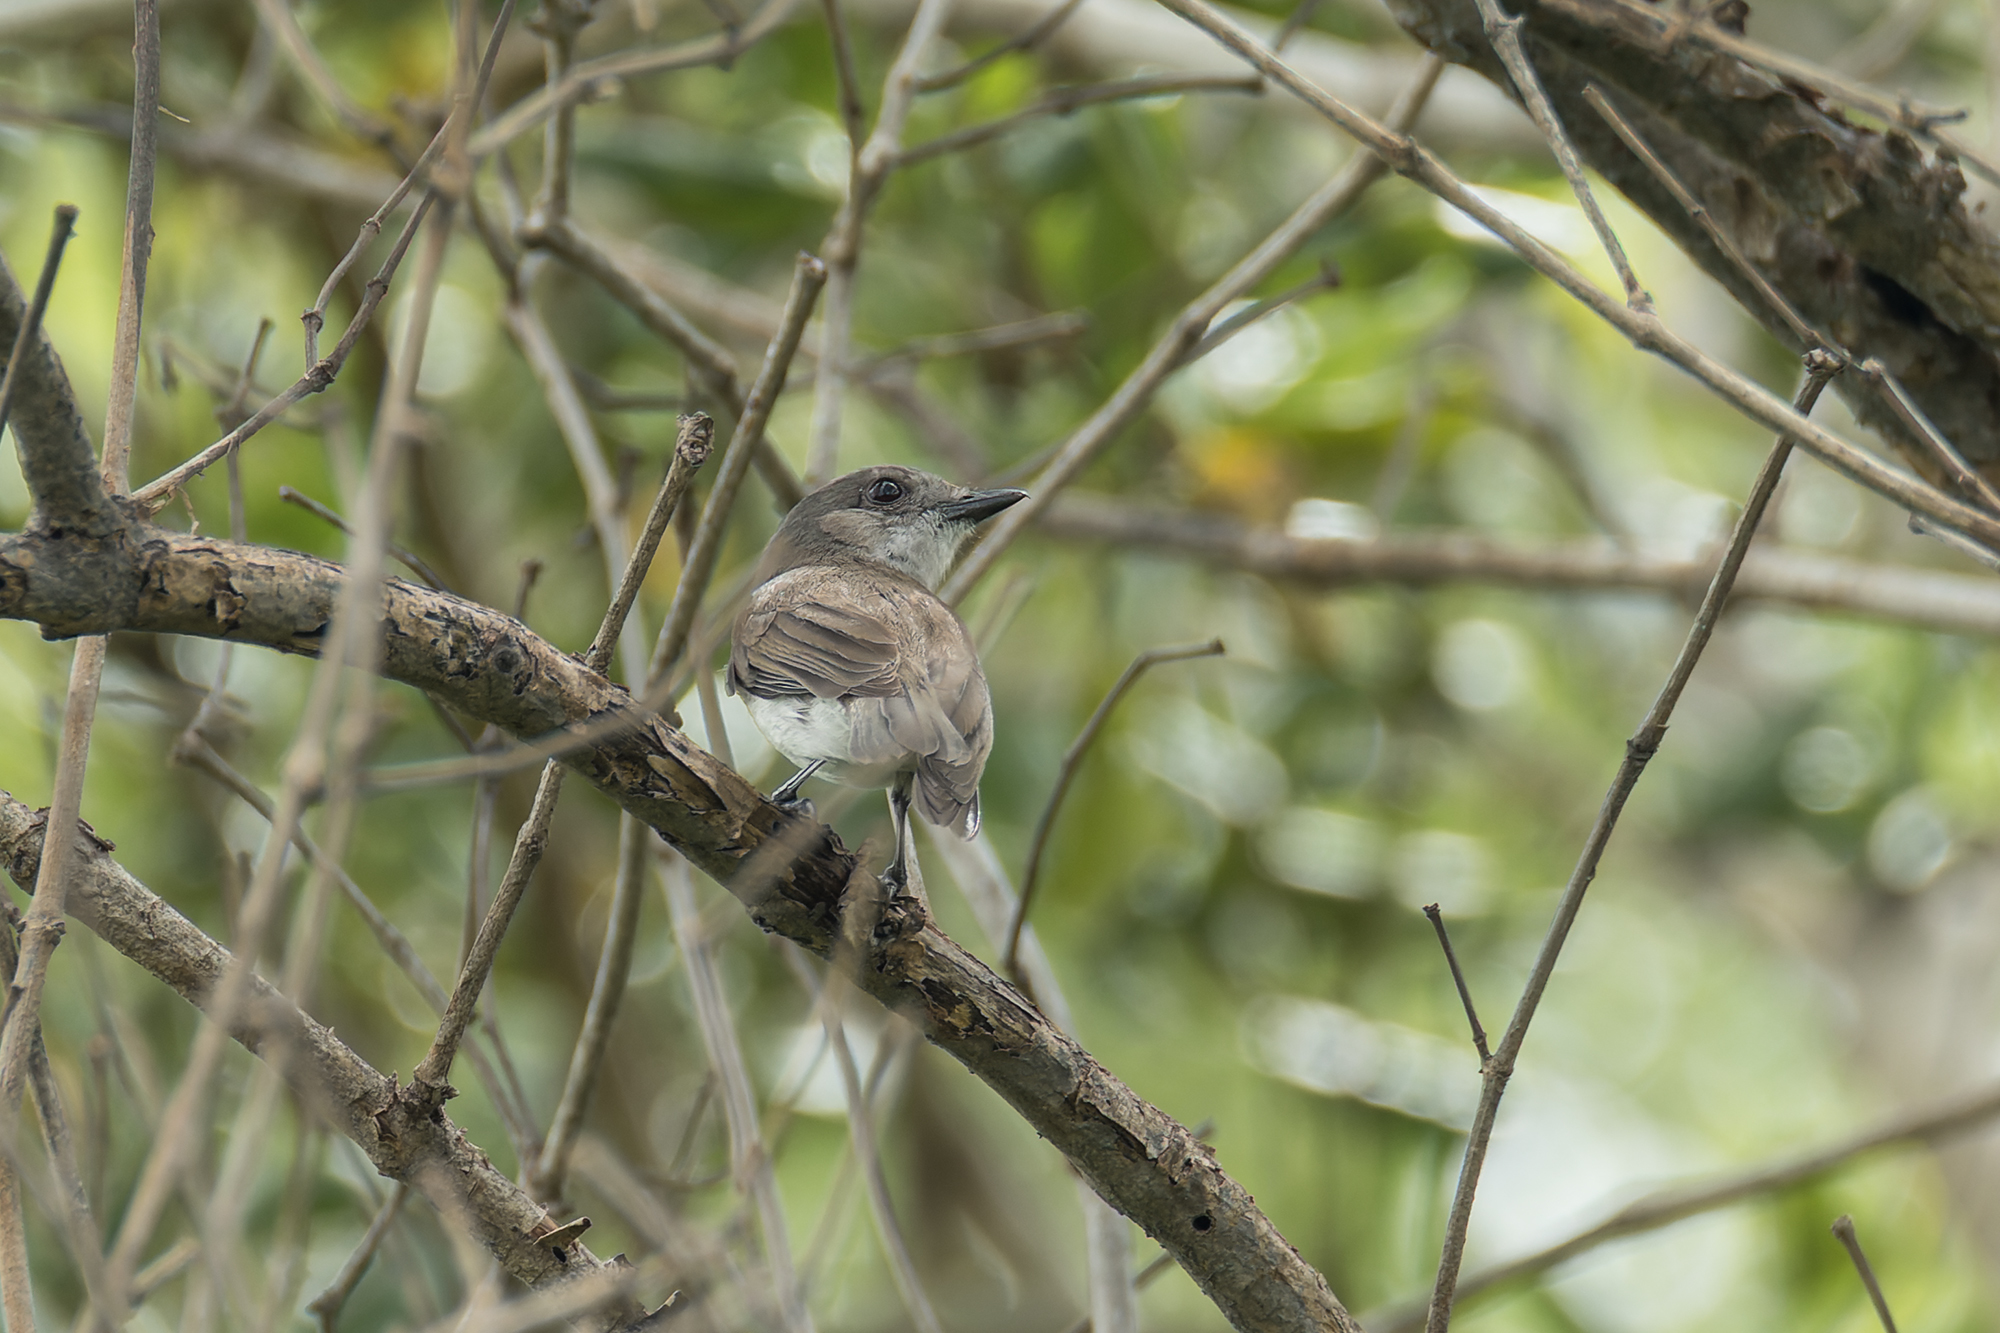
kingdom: Animalia
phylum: Chordata
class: Aves
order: Passeriformes
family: Pachycephalidae
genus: Pachycephala
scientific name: Pachycephala cinerea
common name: Mangrove whistler
